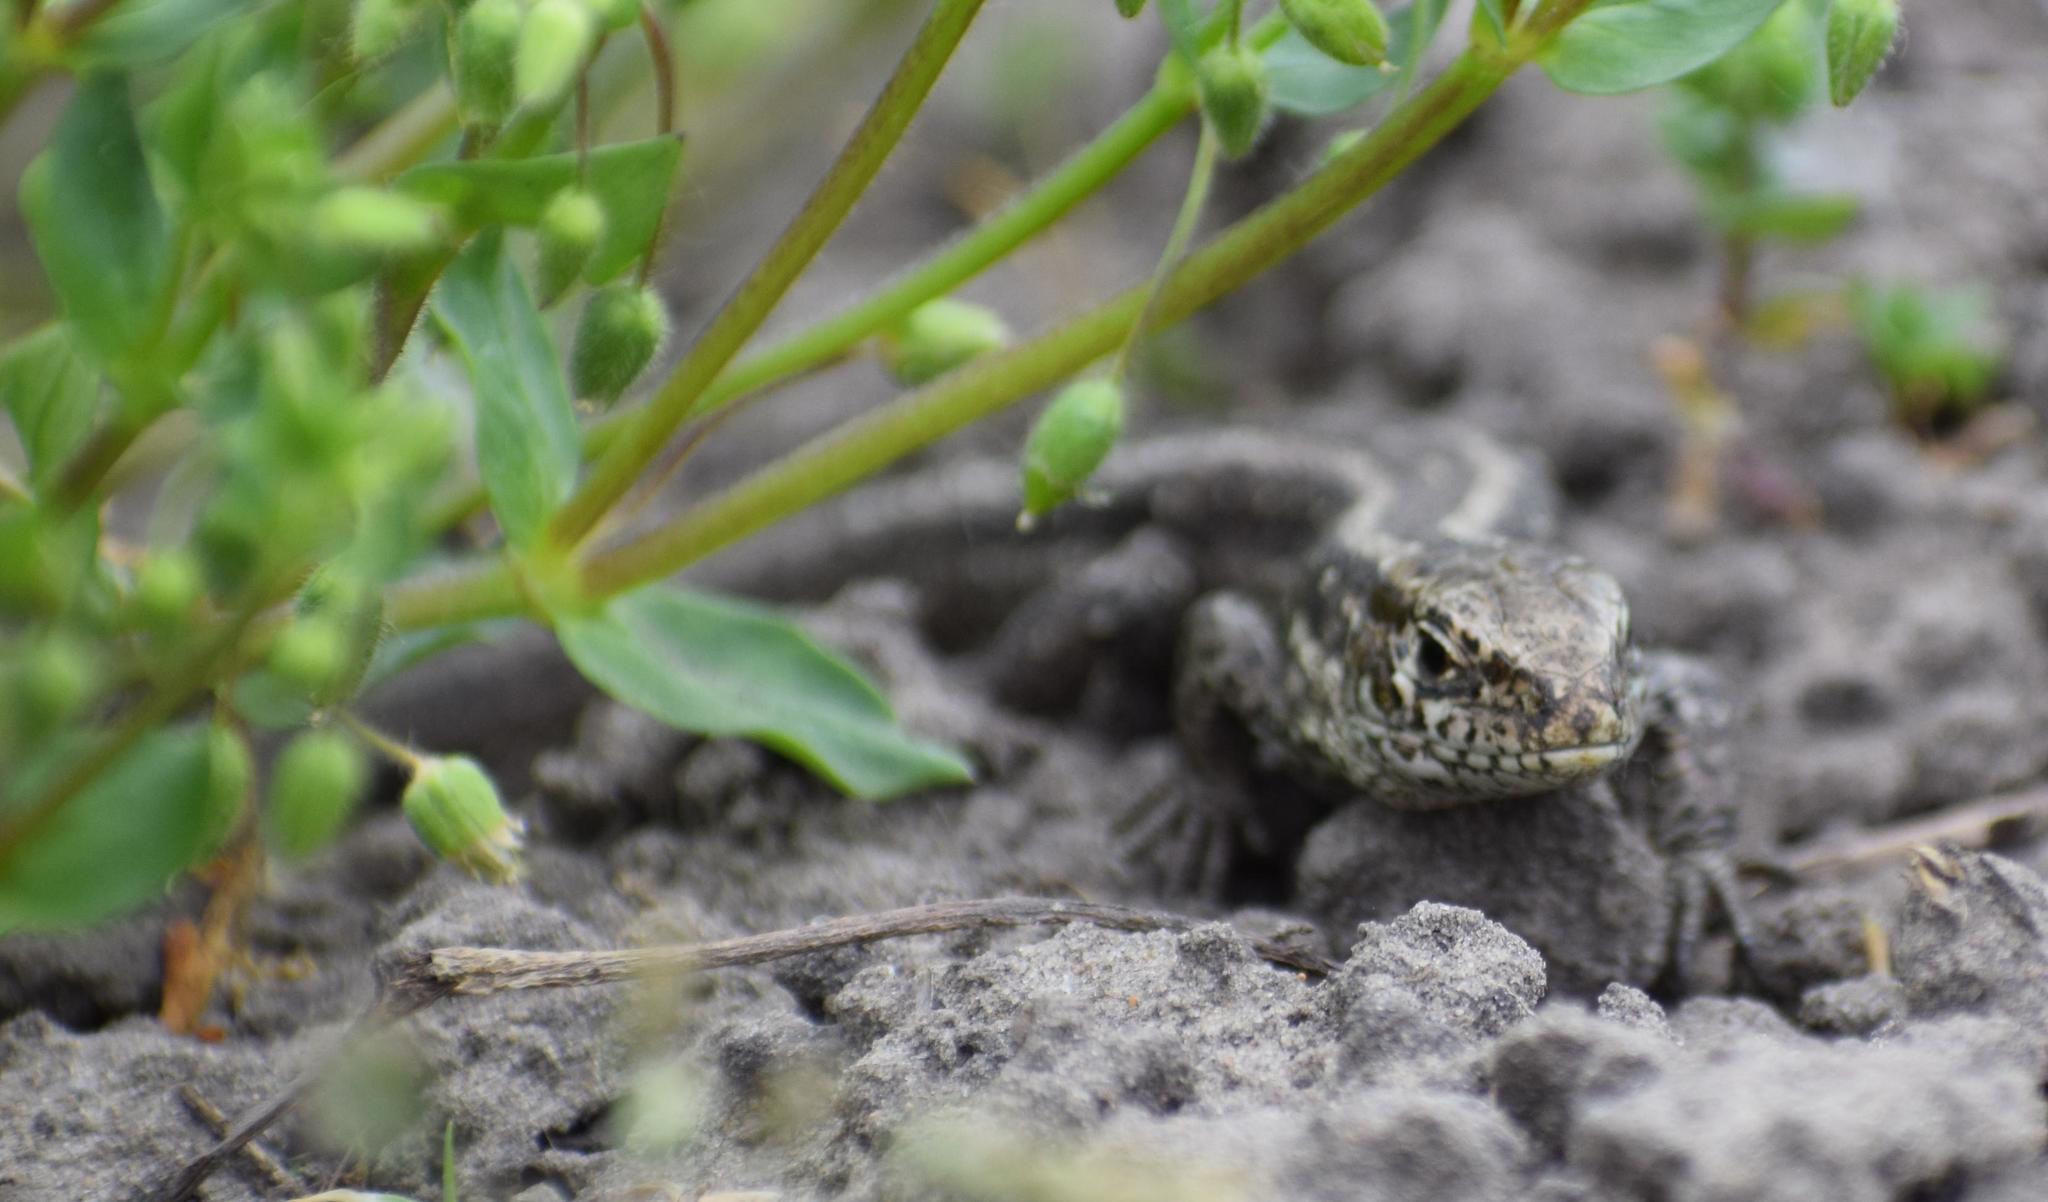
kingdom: Animalia
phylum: Chordata
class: Squamata
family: Lacertidae
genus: Lacerta
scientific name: Lacerta agilis
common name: Sand lizard
